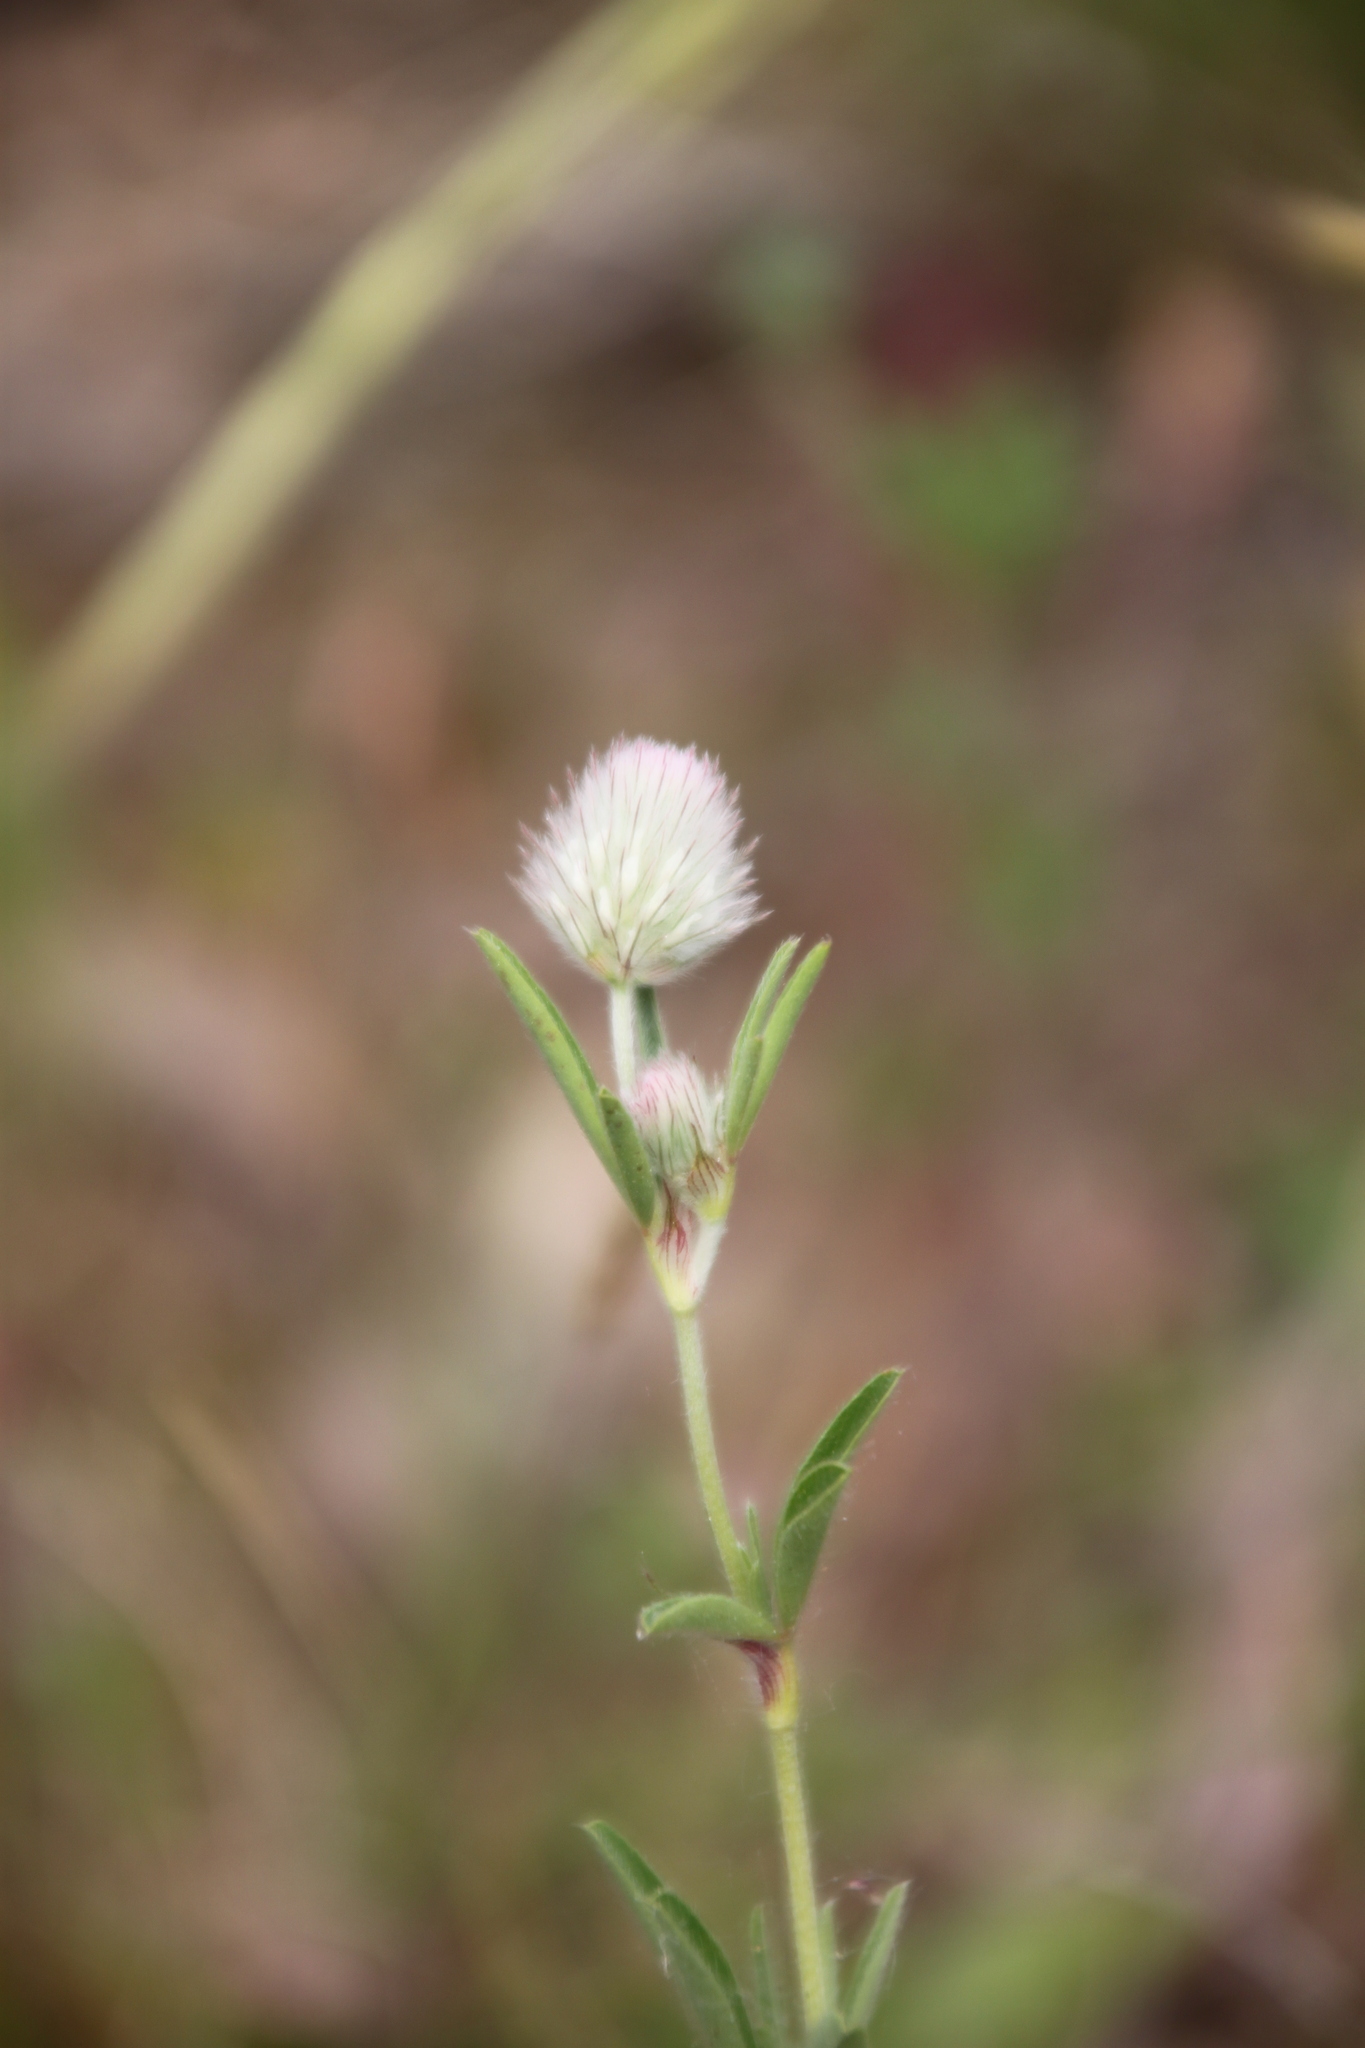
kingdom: Plantae
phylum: Tracheophyta
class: Magnoliopsida
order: Fabales
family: Fabaceae
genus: Trifolium
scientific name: Trifolium arvense
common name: Hare's-foot clover
